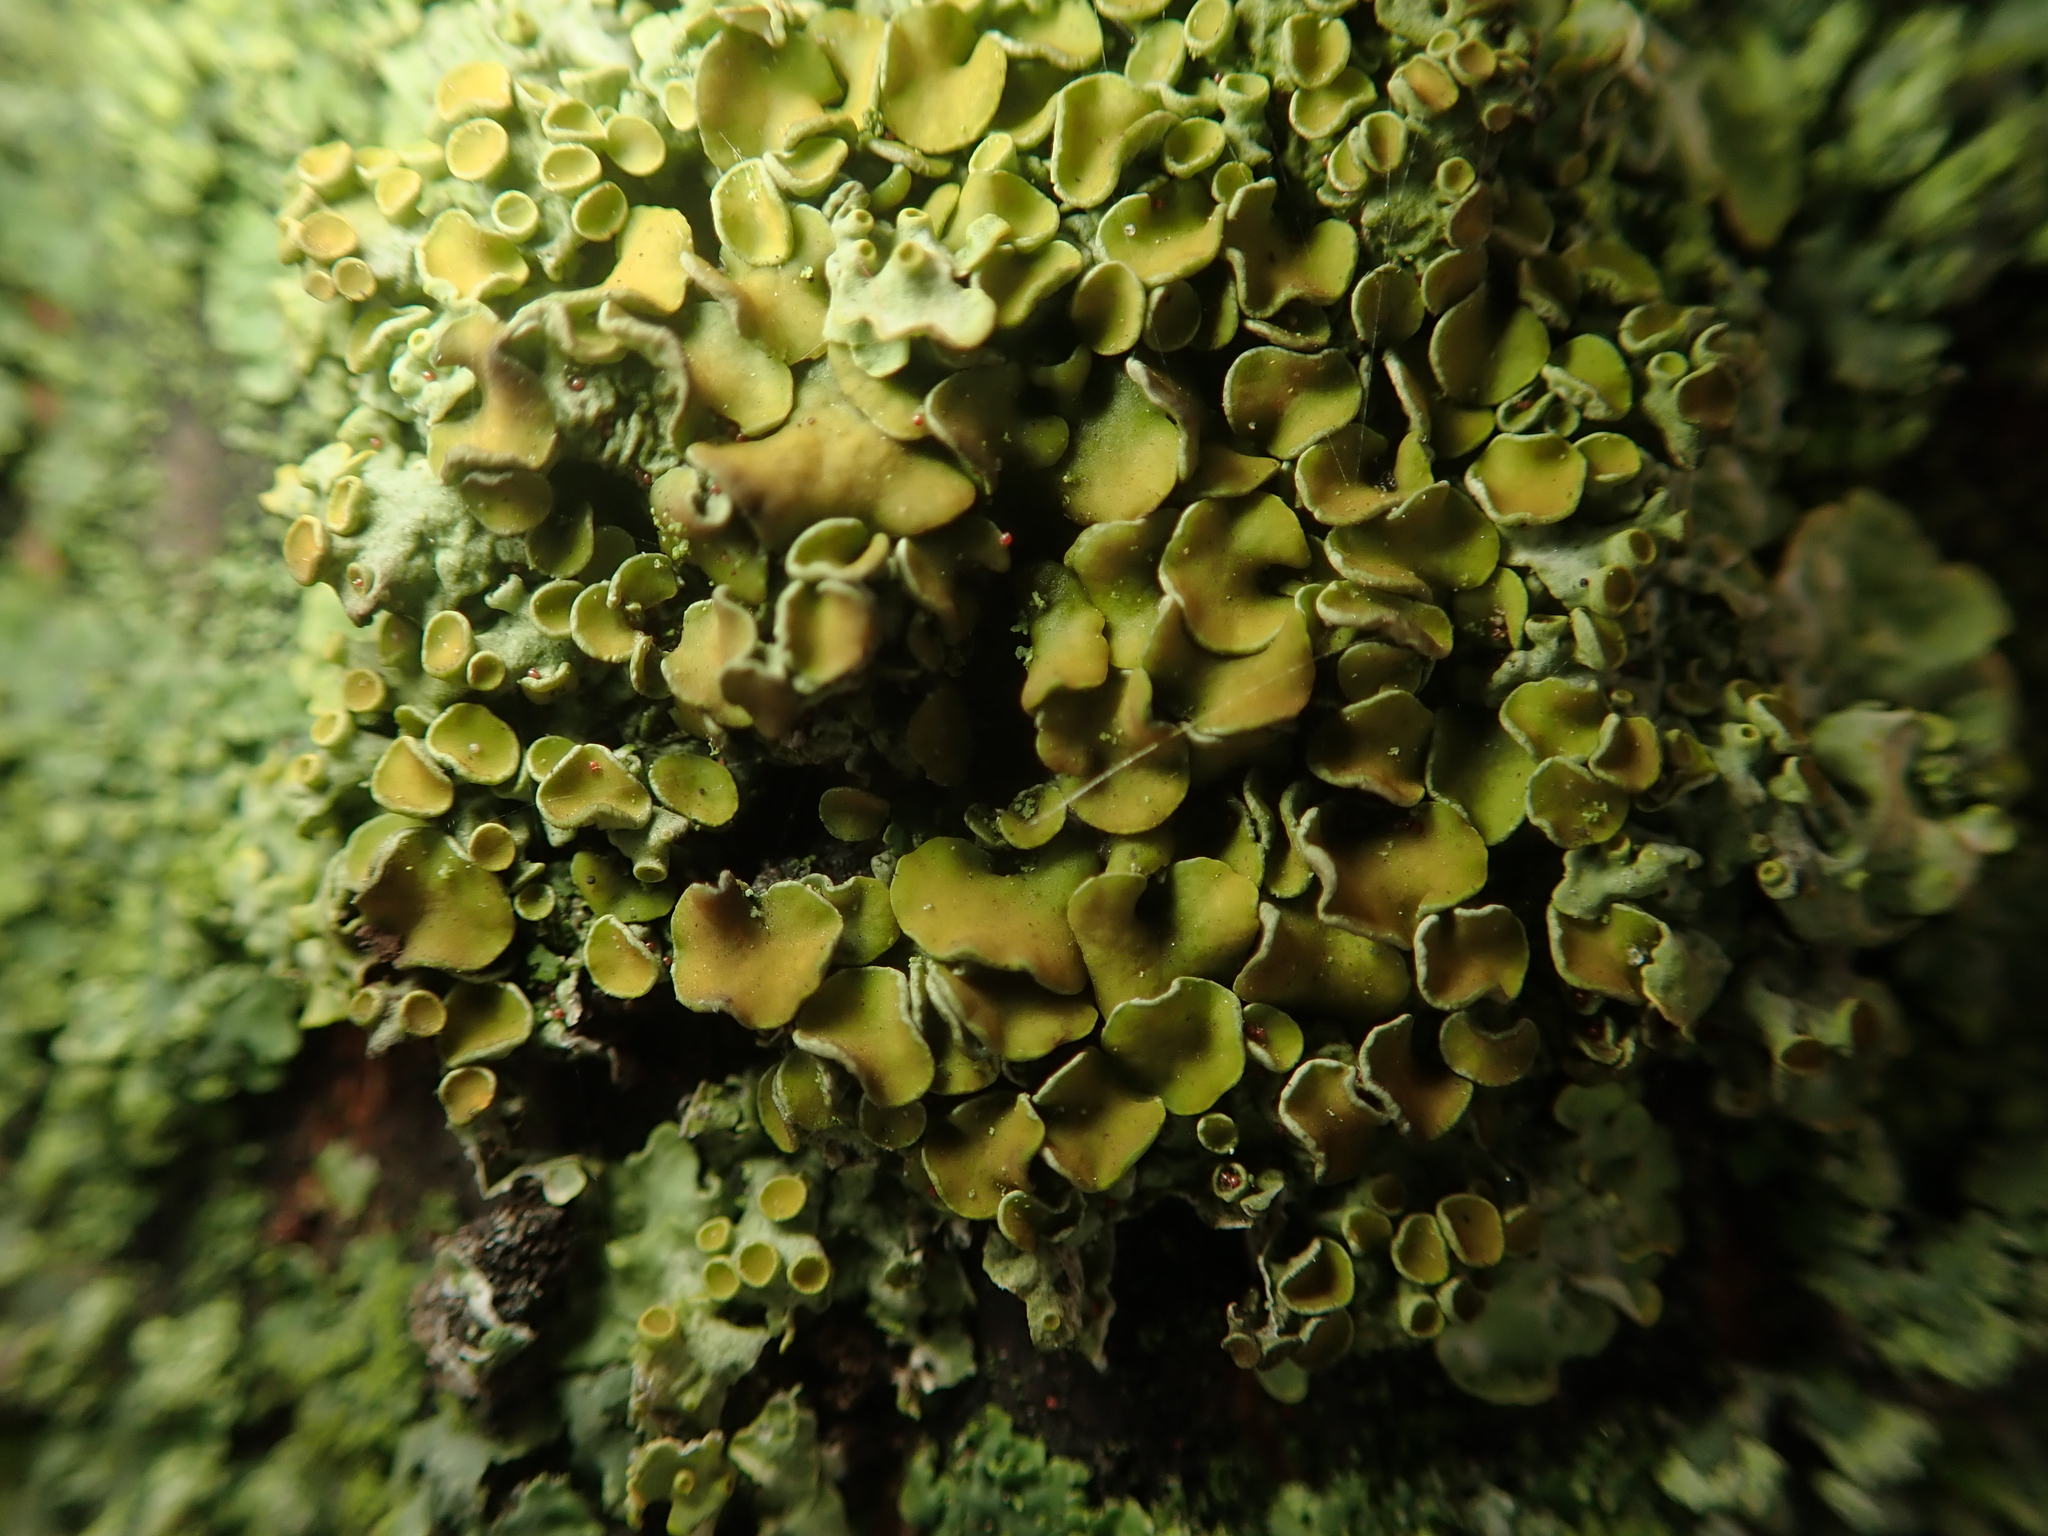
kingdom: Fungi
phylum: Ascomycota
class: Lecanoromycetes
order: Teloschistales
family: Teloschistaceae
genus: Xanthoria
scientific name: Xanthoria parietina
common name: Common orange lichen
